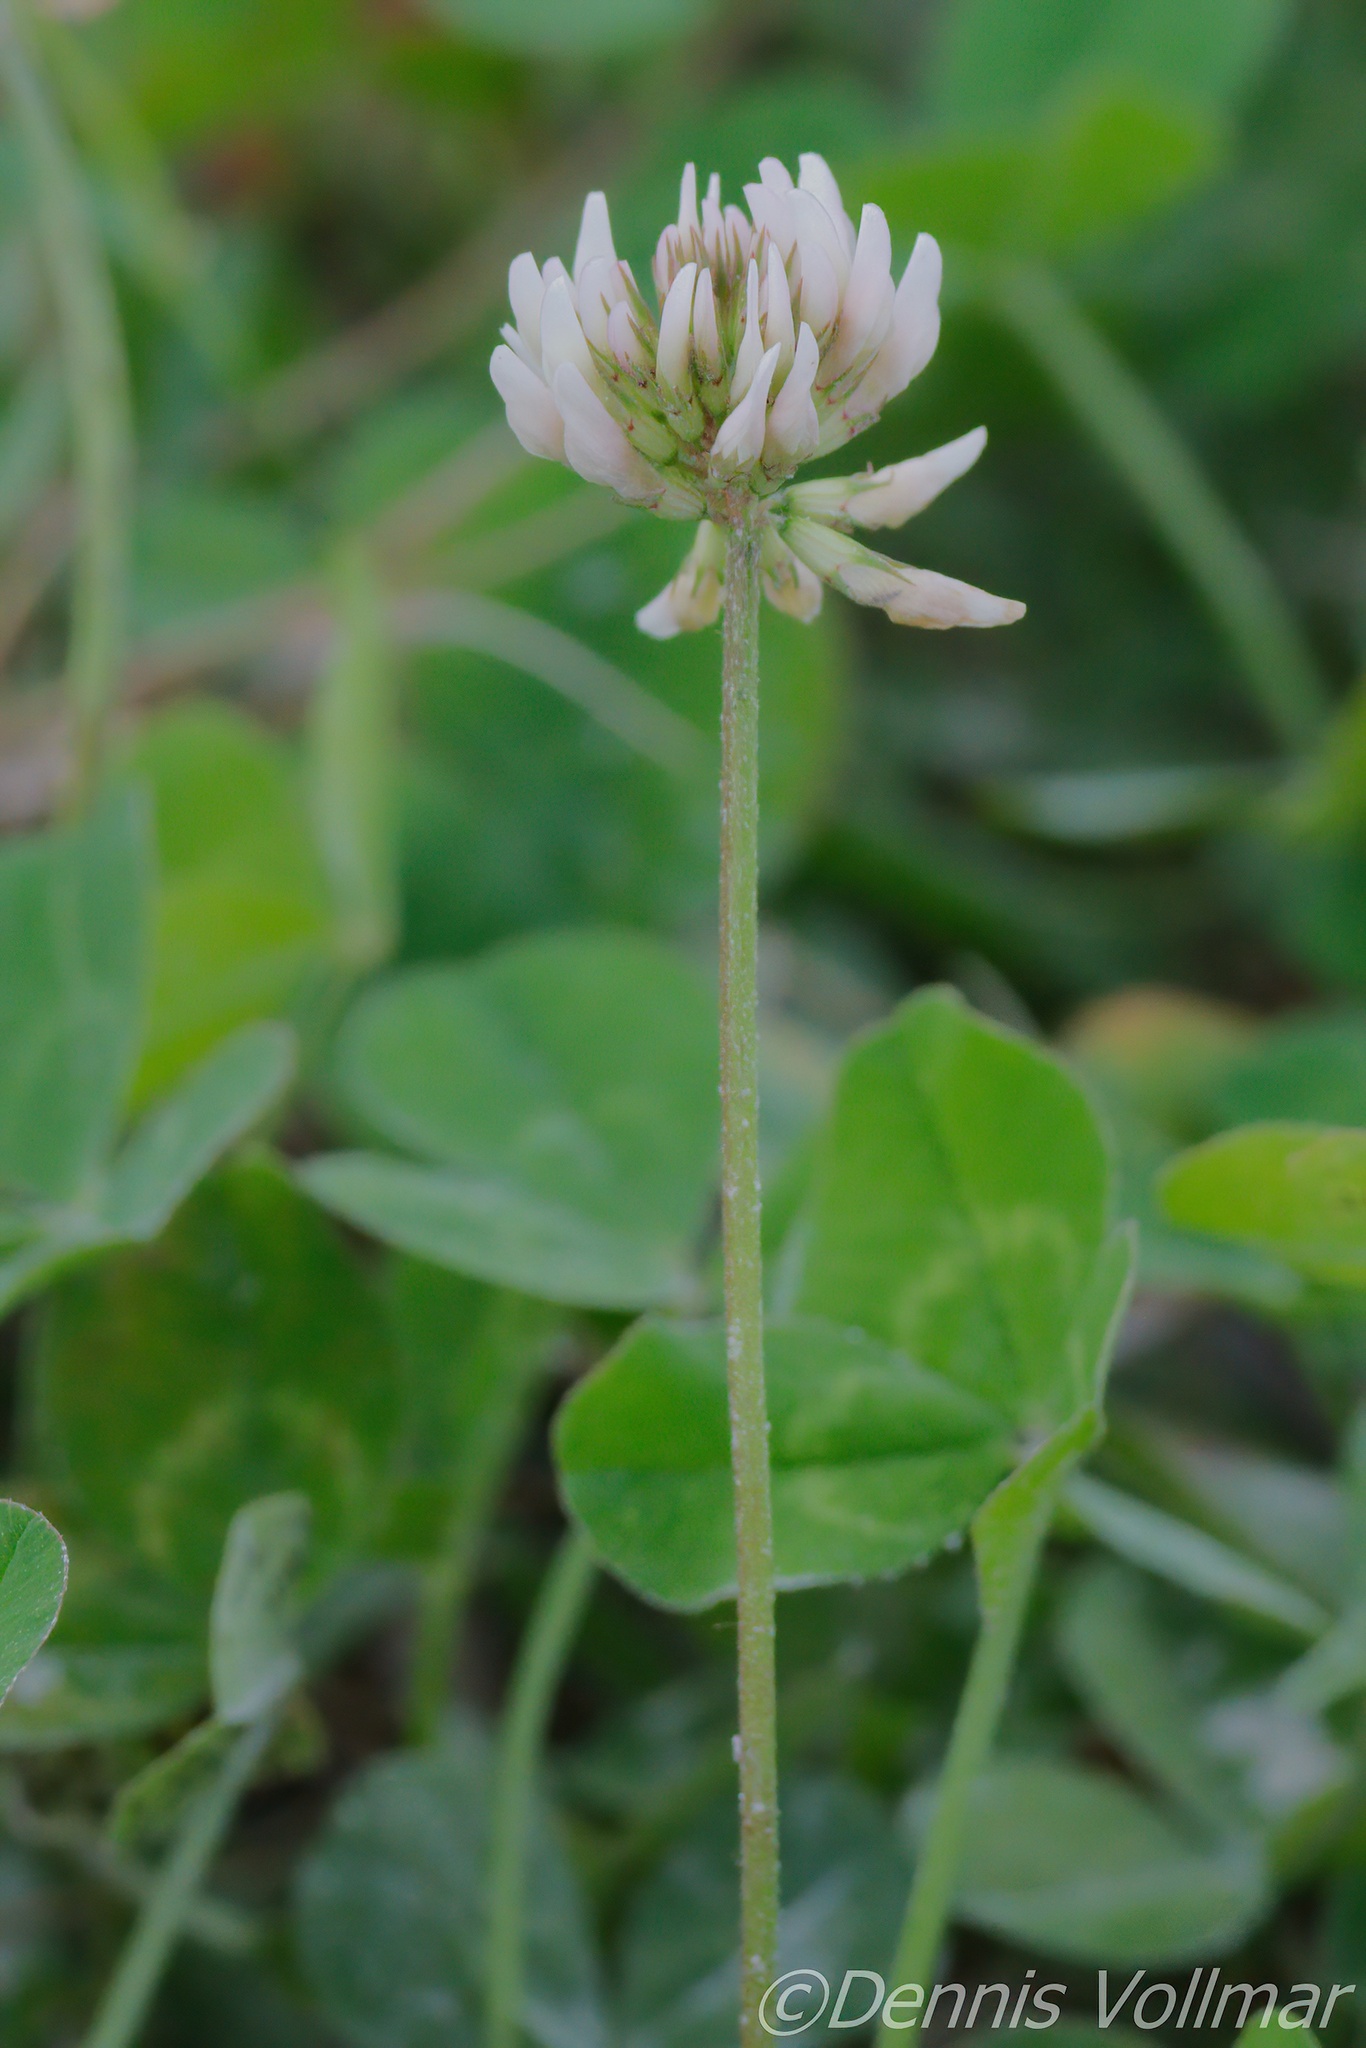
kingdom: Plantae
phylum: Tracheophyta
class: Magnoliopsida
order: Fabales
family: Fabaceae
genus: Trifolium
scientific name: Trifolium repens
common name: White clover
